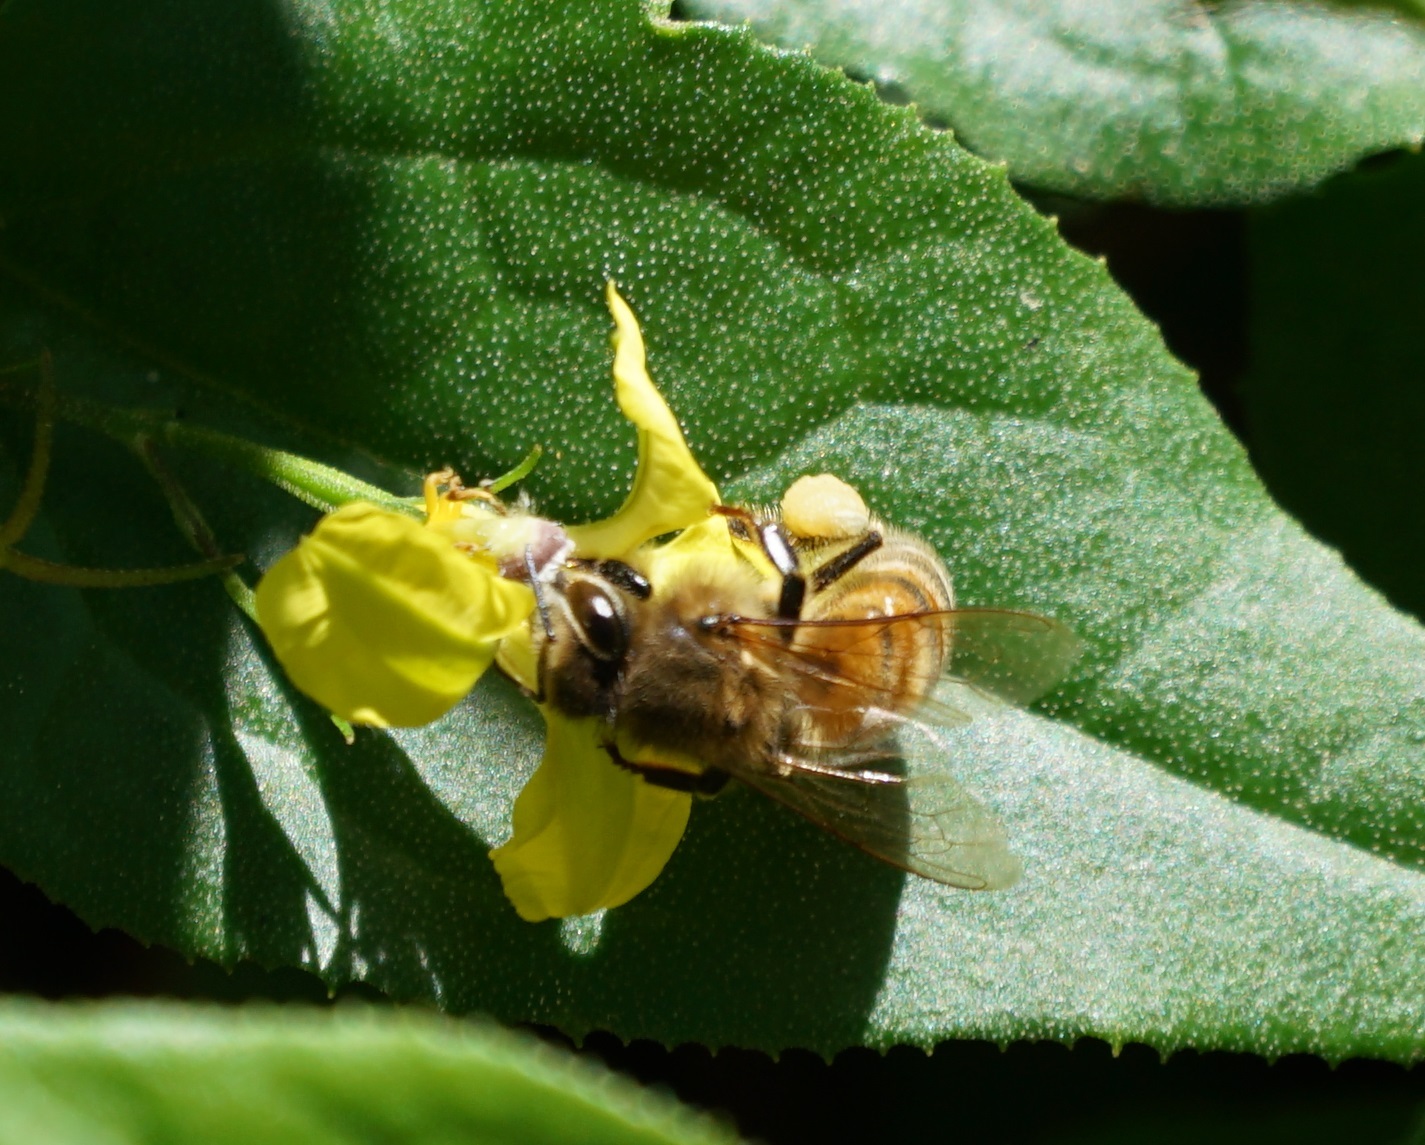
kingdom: Animalia
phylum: Arthropoda
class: Insecta
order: Hymenoptera
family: Apidae
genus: Apis
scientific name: Apis mellifera
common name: Honey bee
